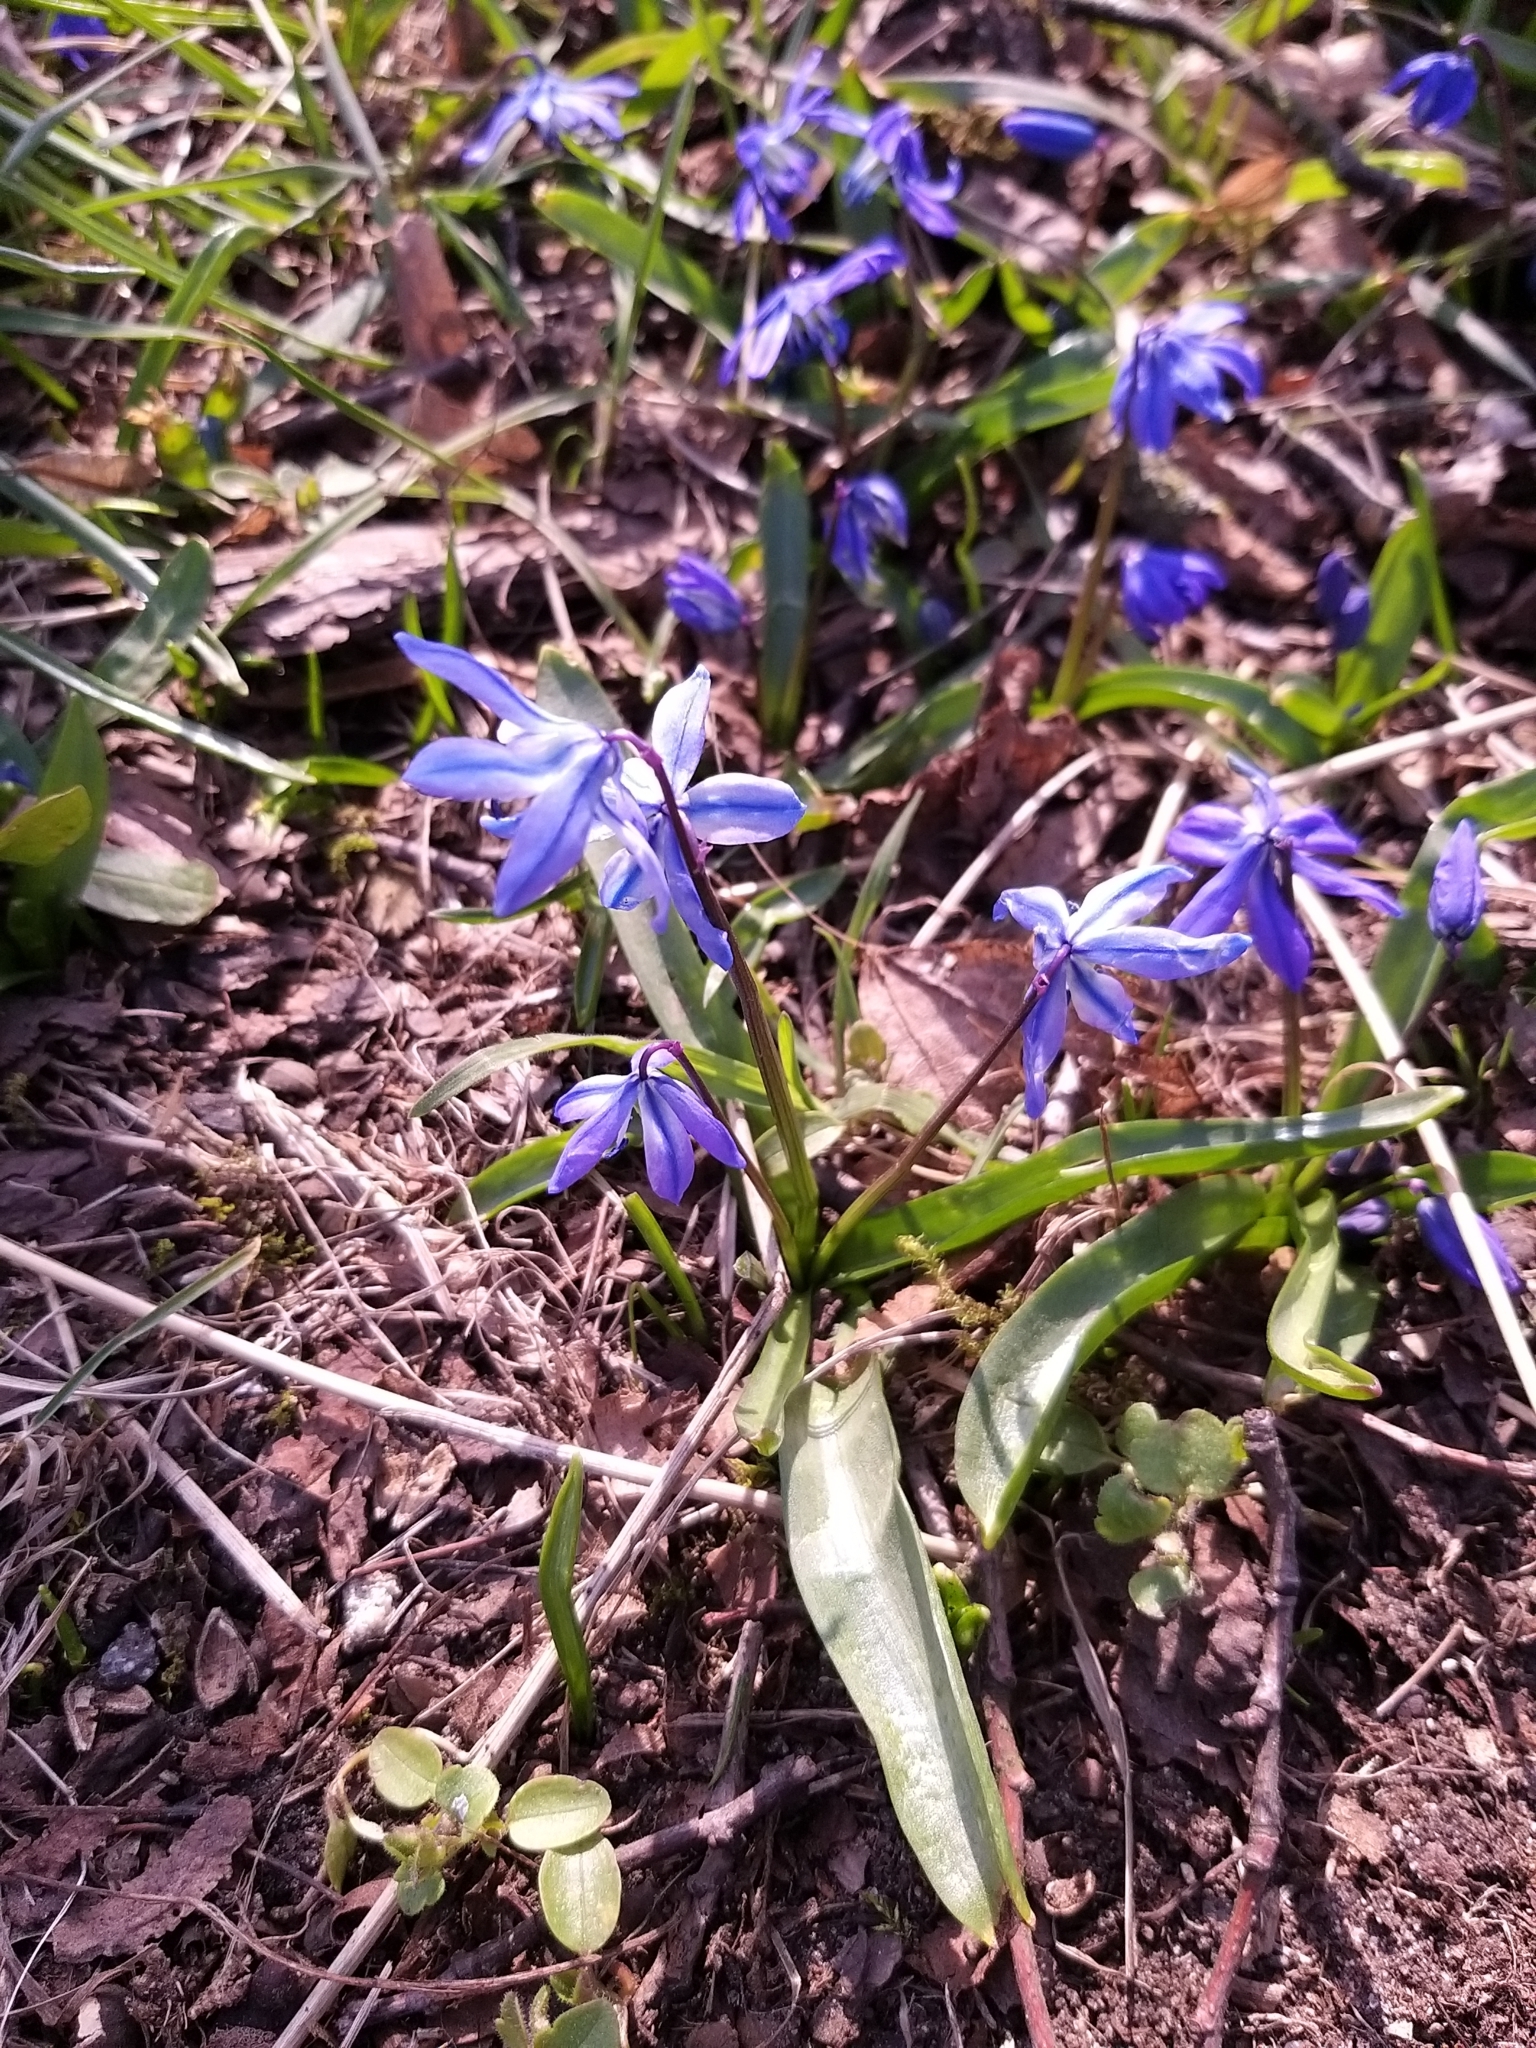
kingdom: Plantae
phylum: Tracheophyta
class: Liliopsida
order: Asparagales
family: Asparagaceae
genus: Scilla
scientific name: Scilla siberica
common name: Siberian squill
